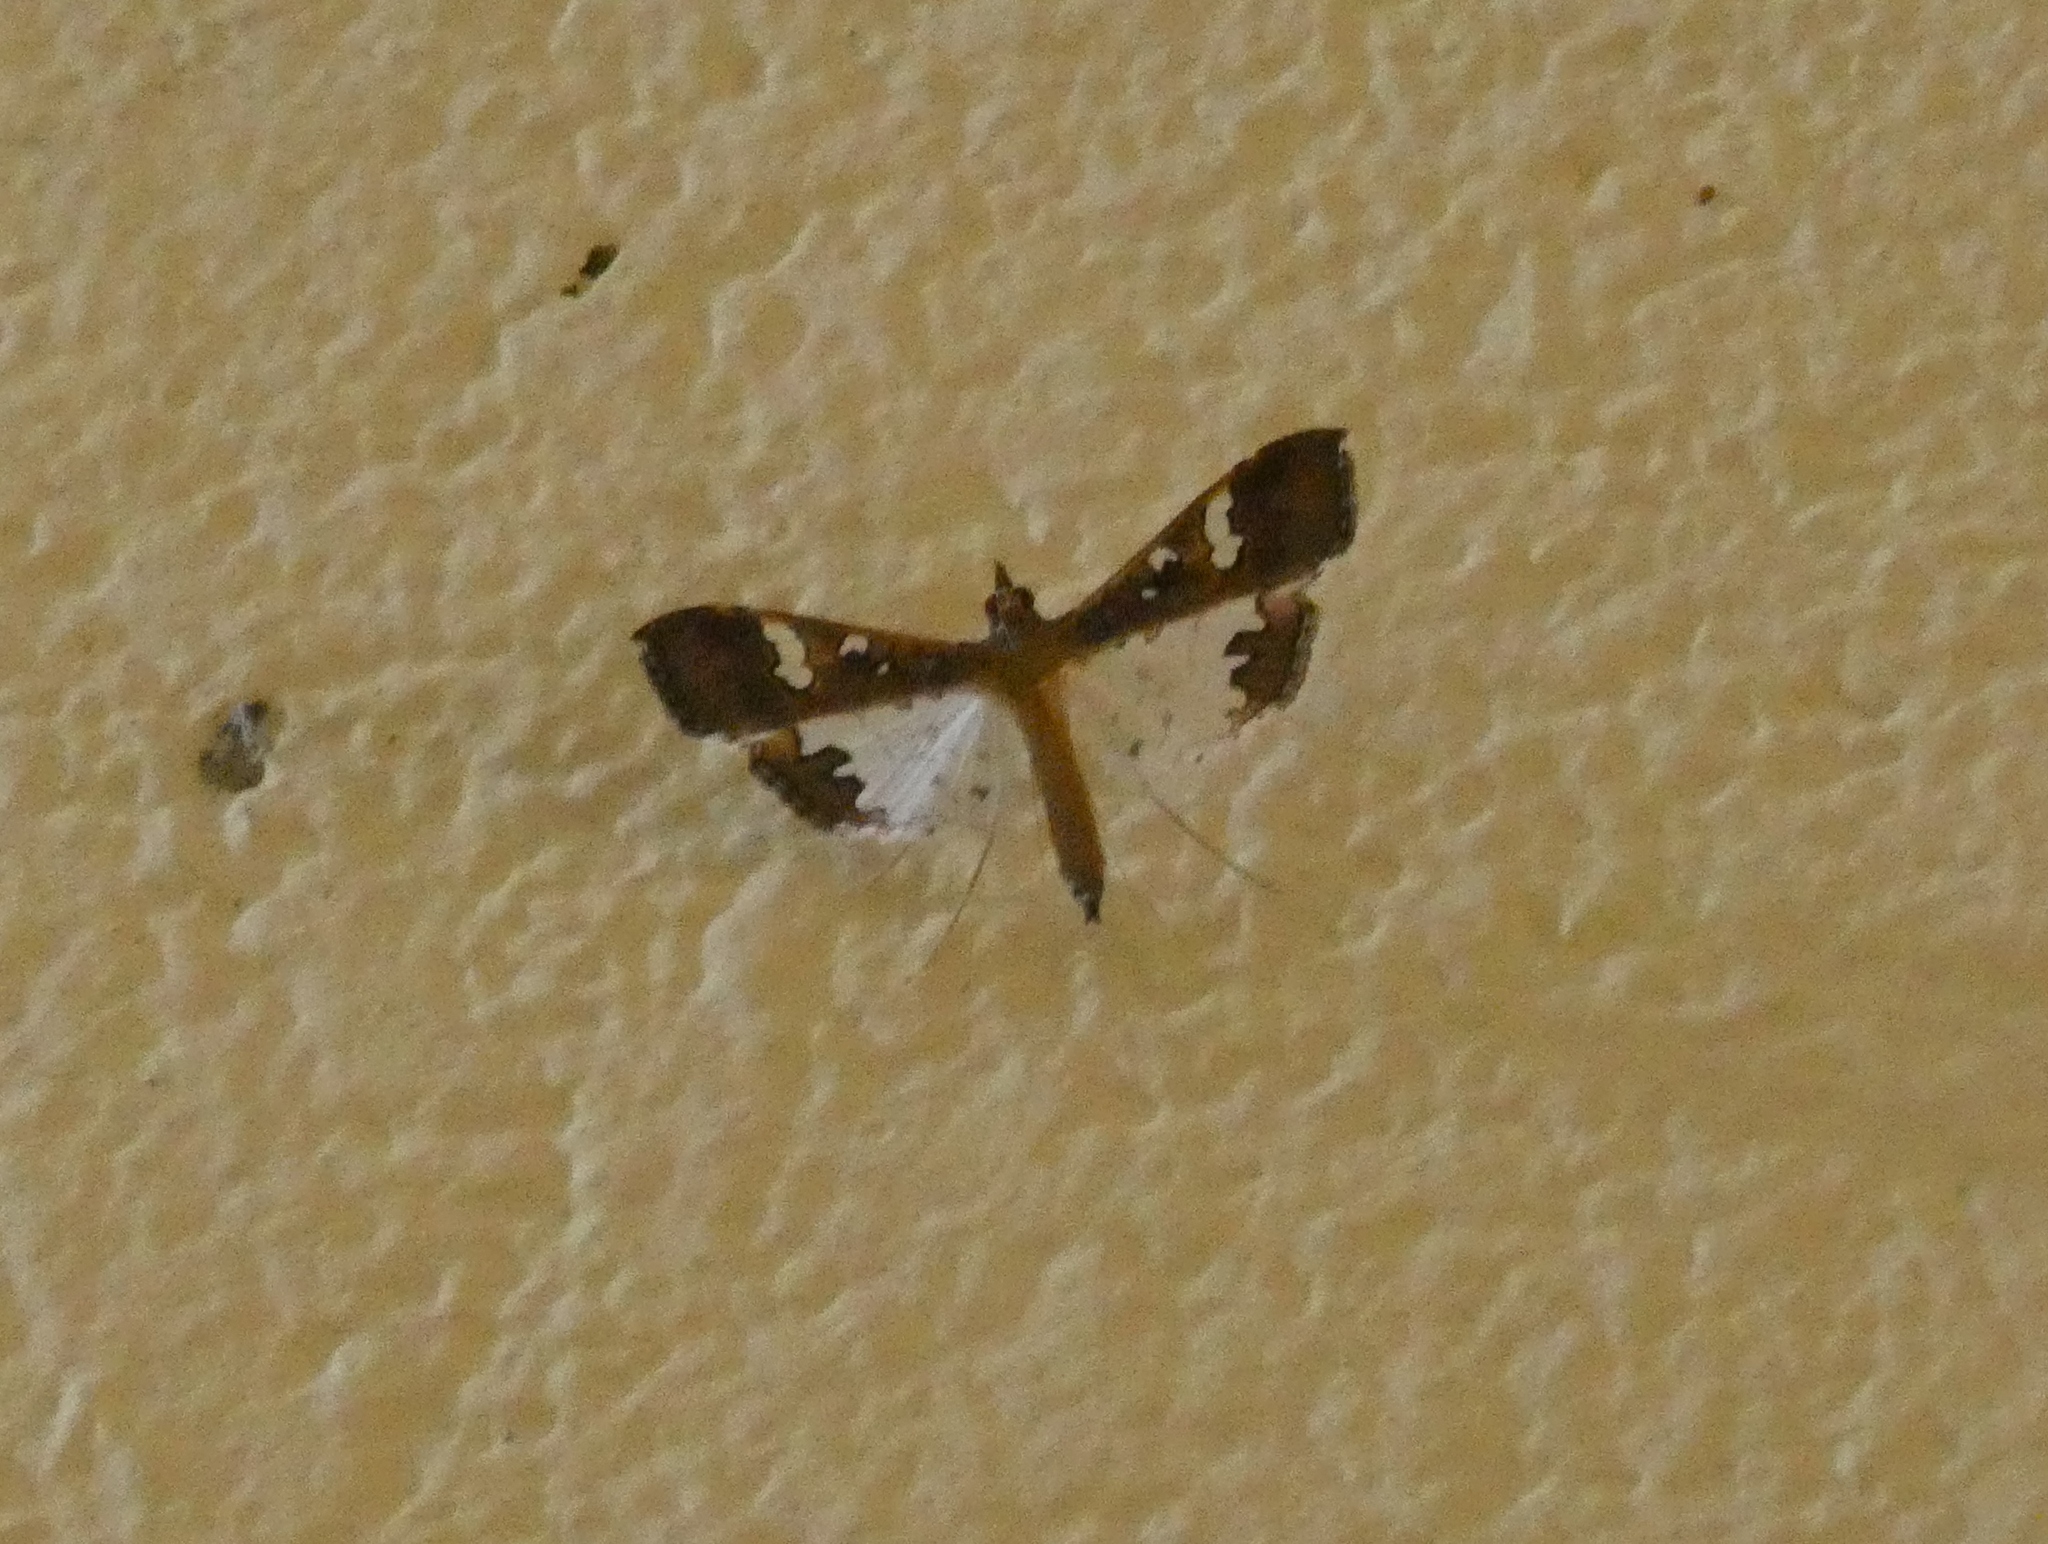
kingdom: Animalia
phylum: Arthropoda
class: Insecta
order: Lepidoptera
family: Crambidae
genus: Maruca
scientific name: Maruca vitrata
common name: Maruca pod borer
